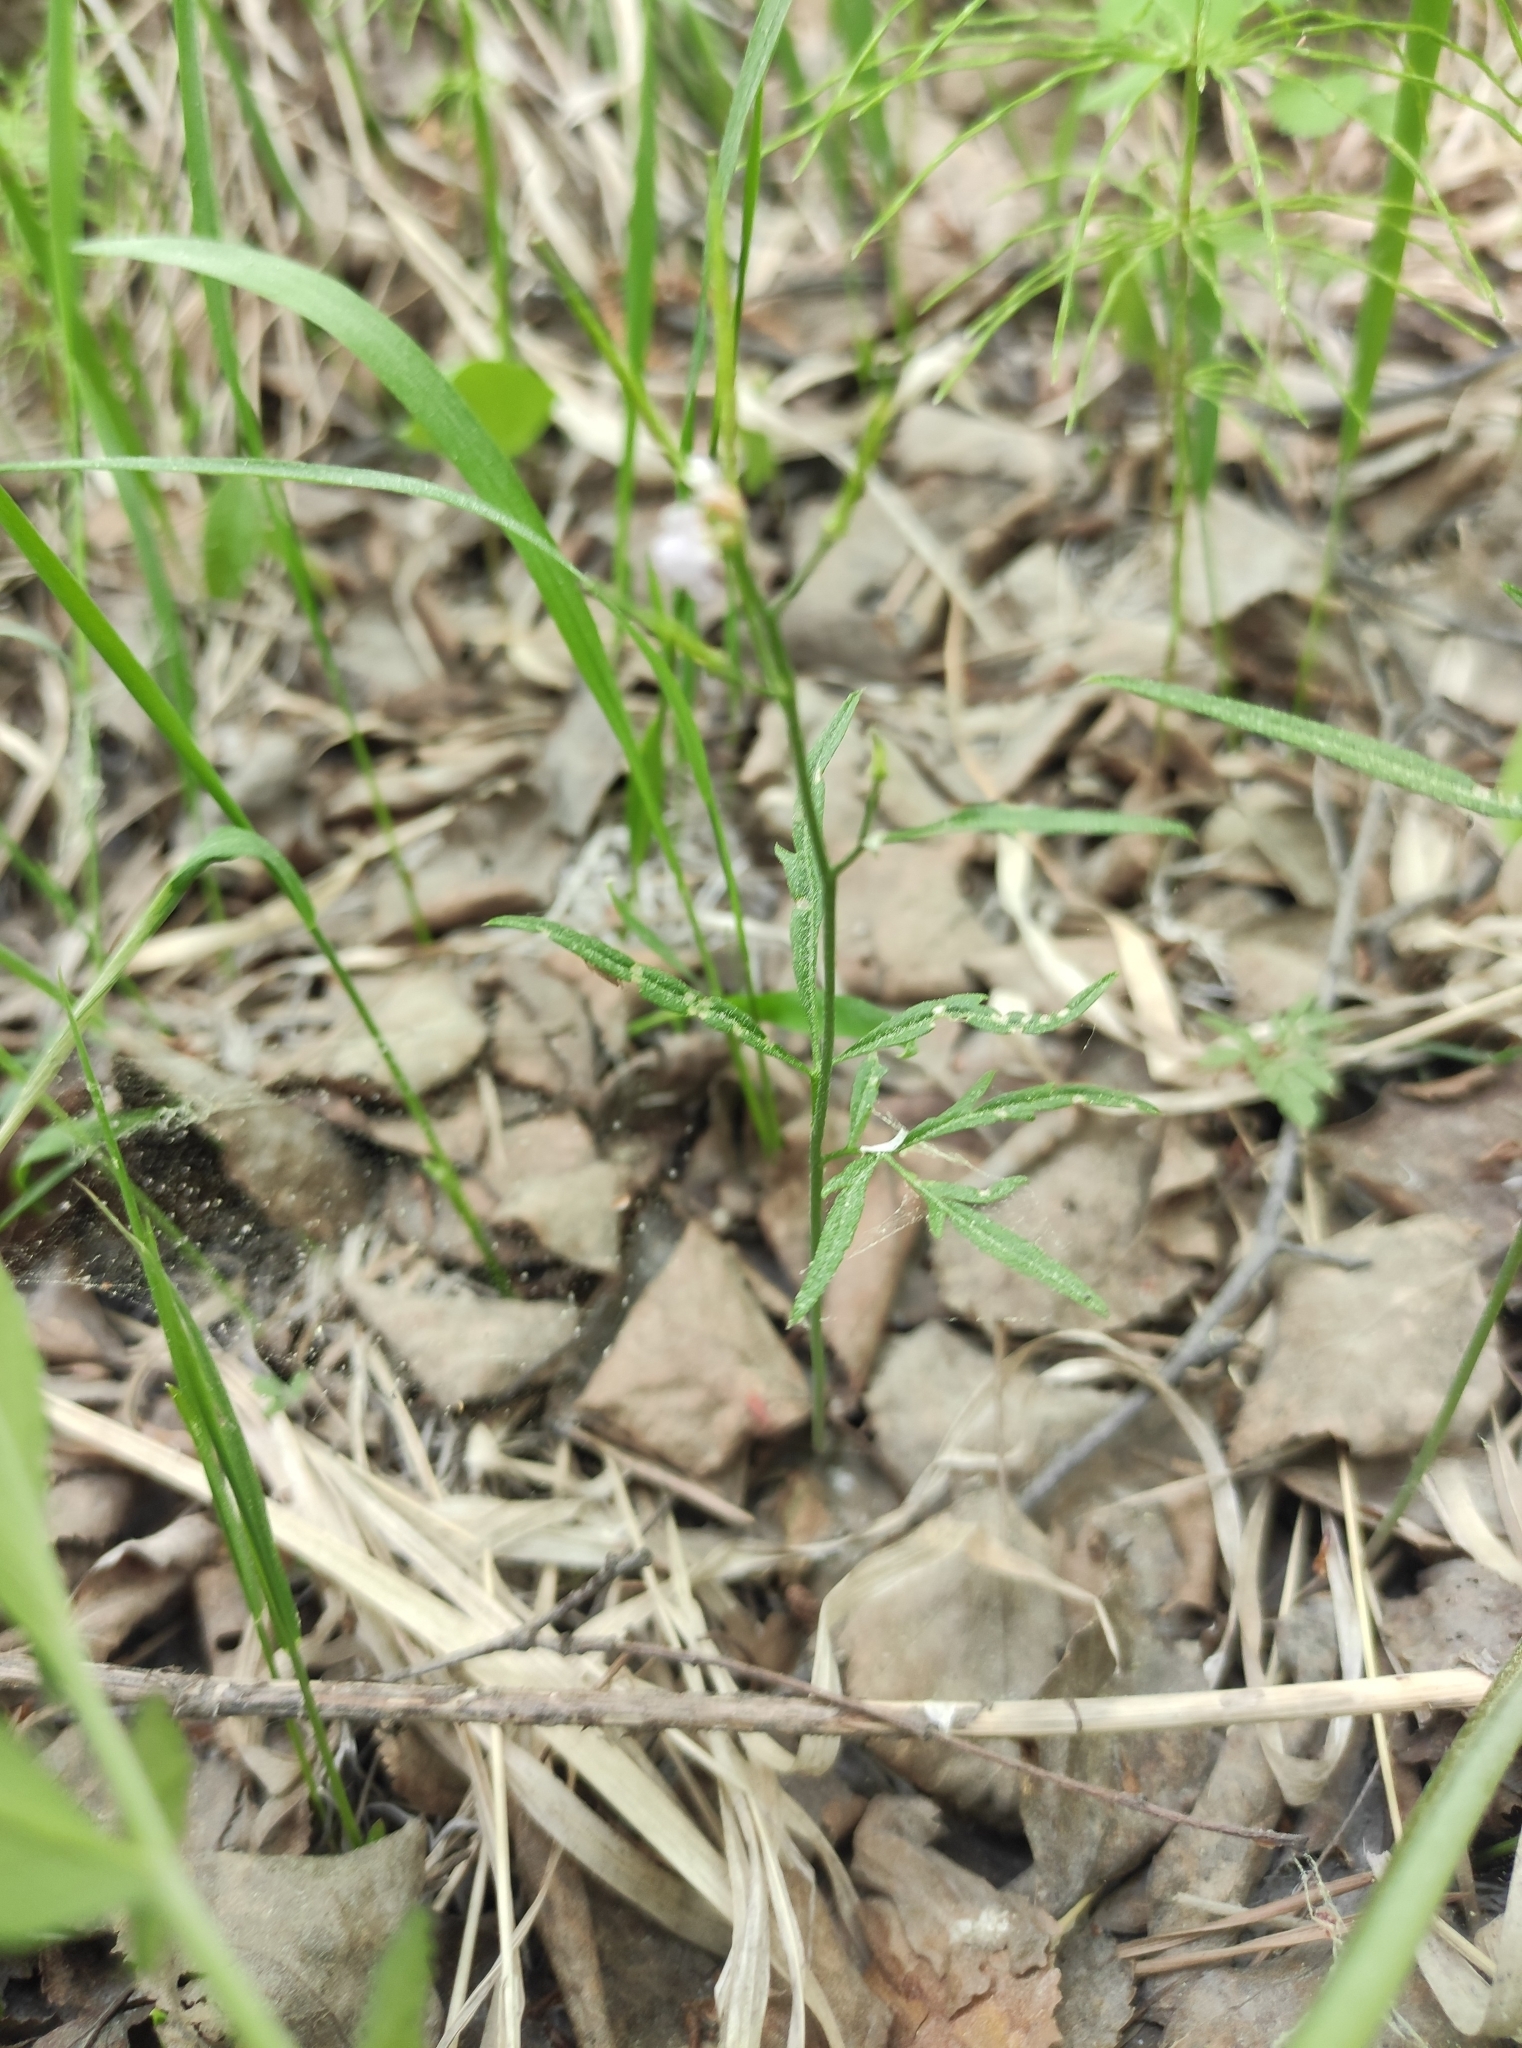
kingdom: Plantae
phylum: Tracheophyta
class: Magnoliopsida
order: Brassicales
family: Brassicaceae
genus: Cardamine
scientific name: Cardamine trifida
